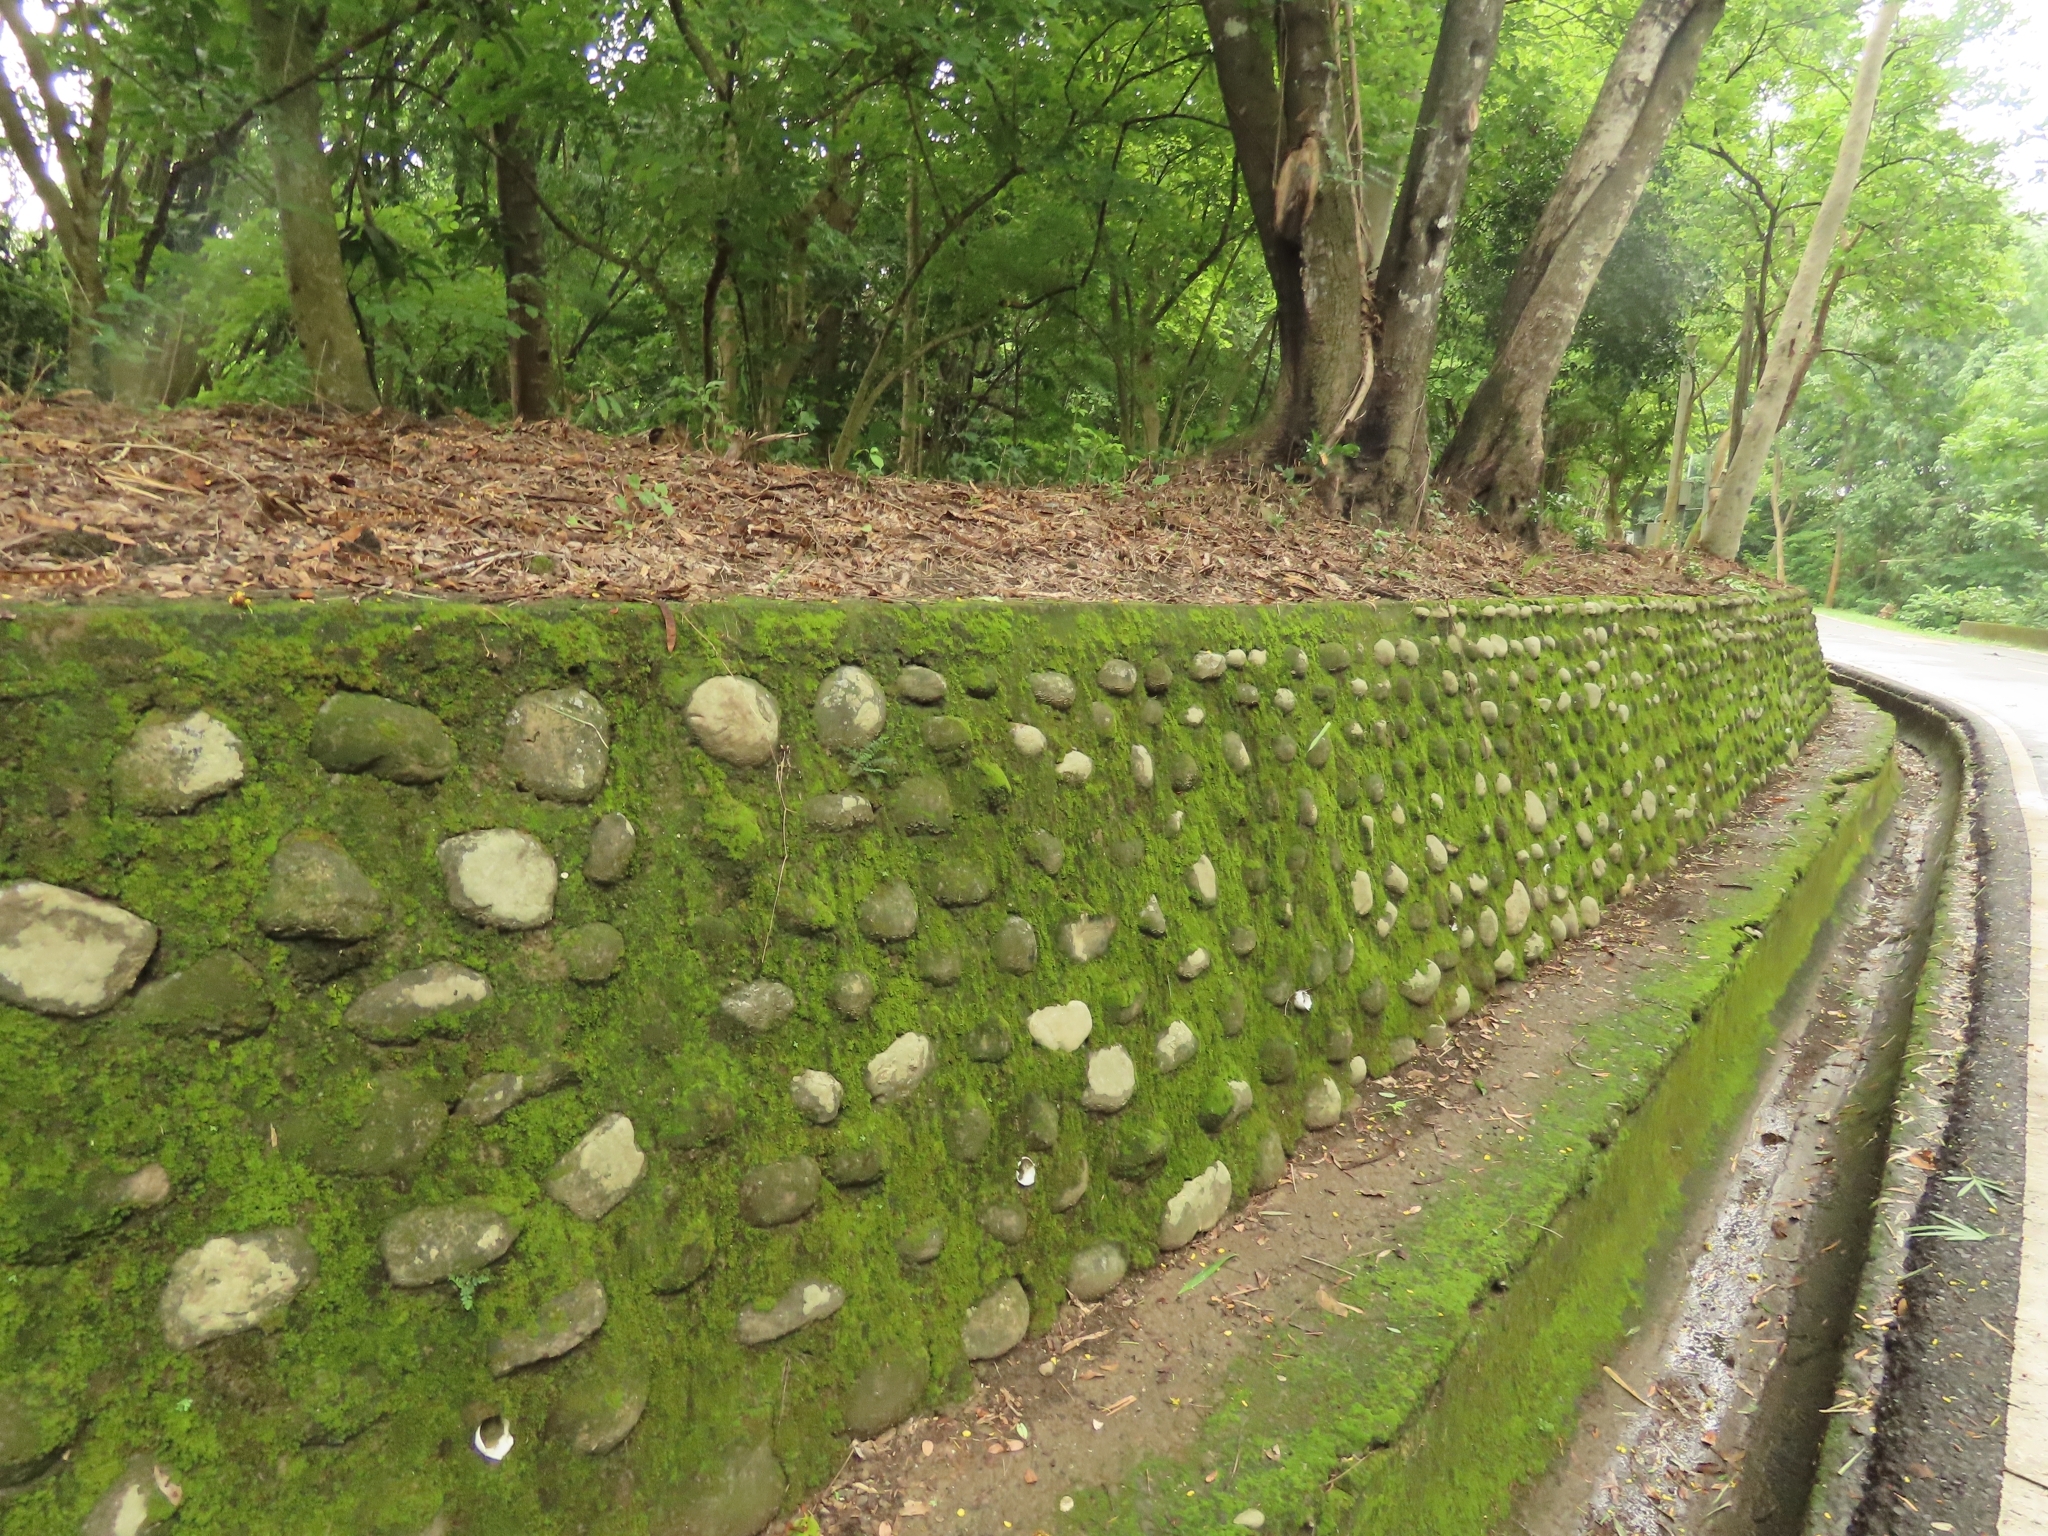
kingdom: Plantae
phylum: Tracheophyta
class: Polypodiopsida
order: Polypodiales
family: Pteridaceae
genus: Oeosporangium
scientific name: Oeosporangium chusanum
